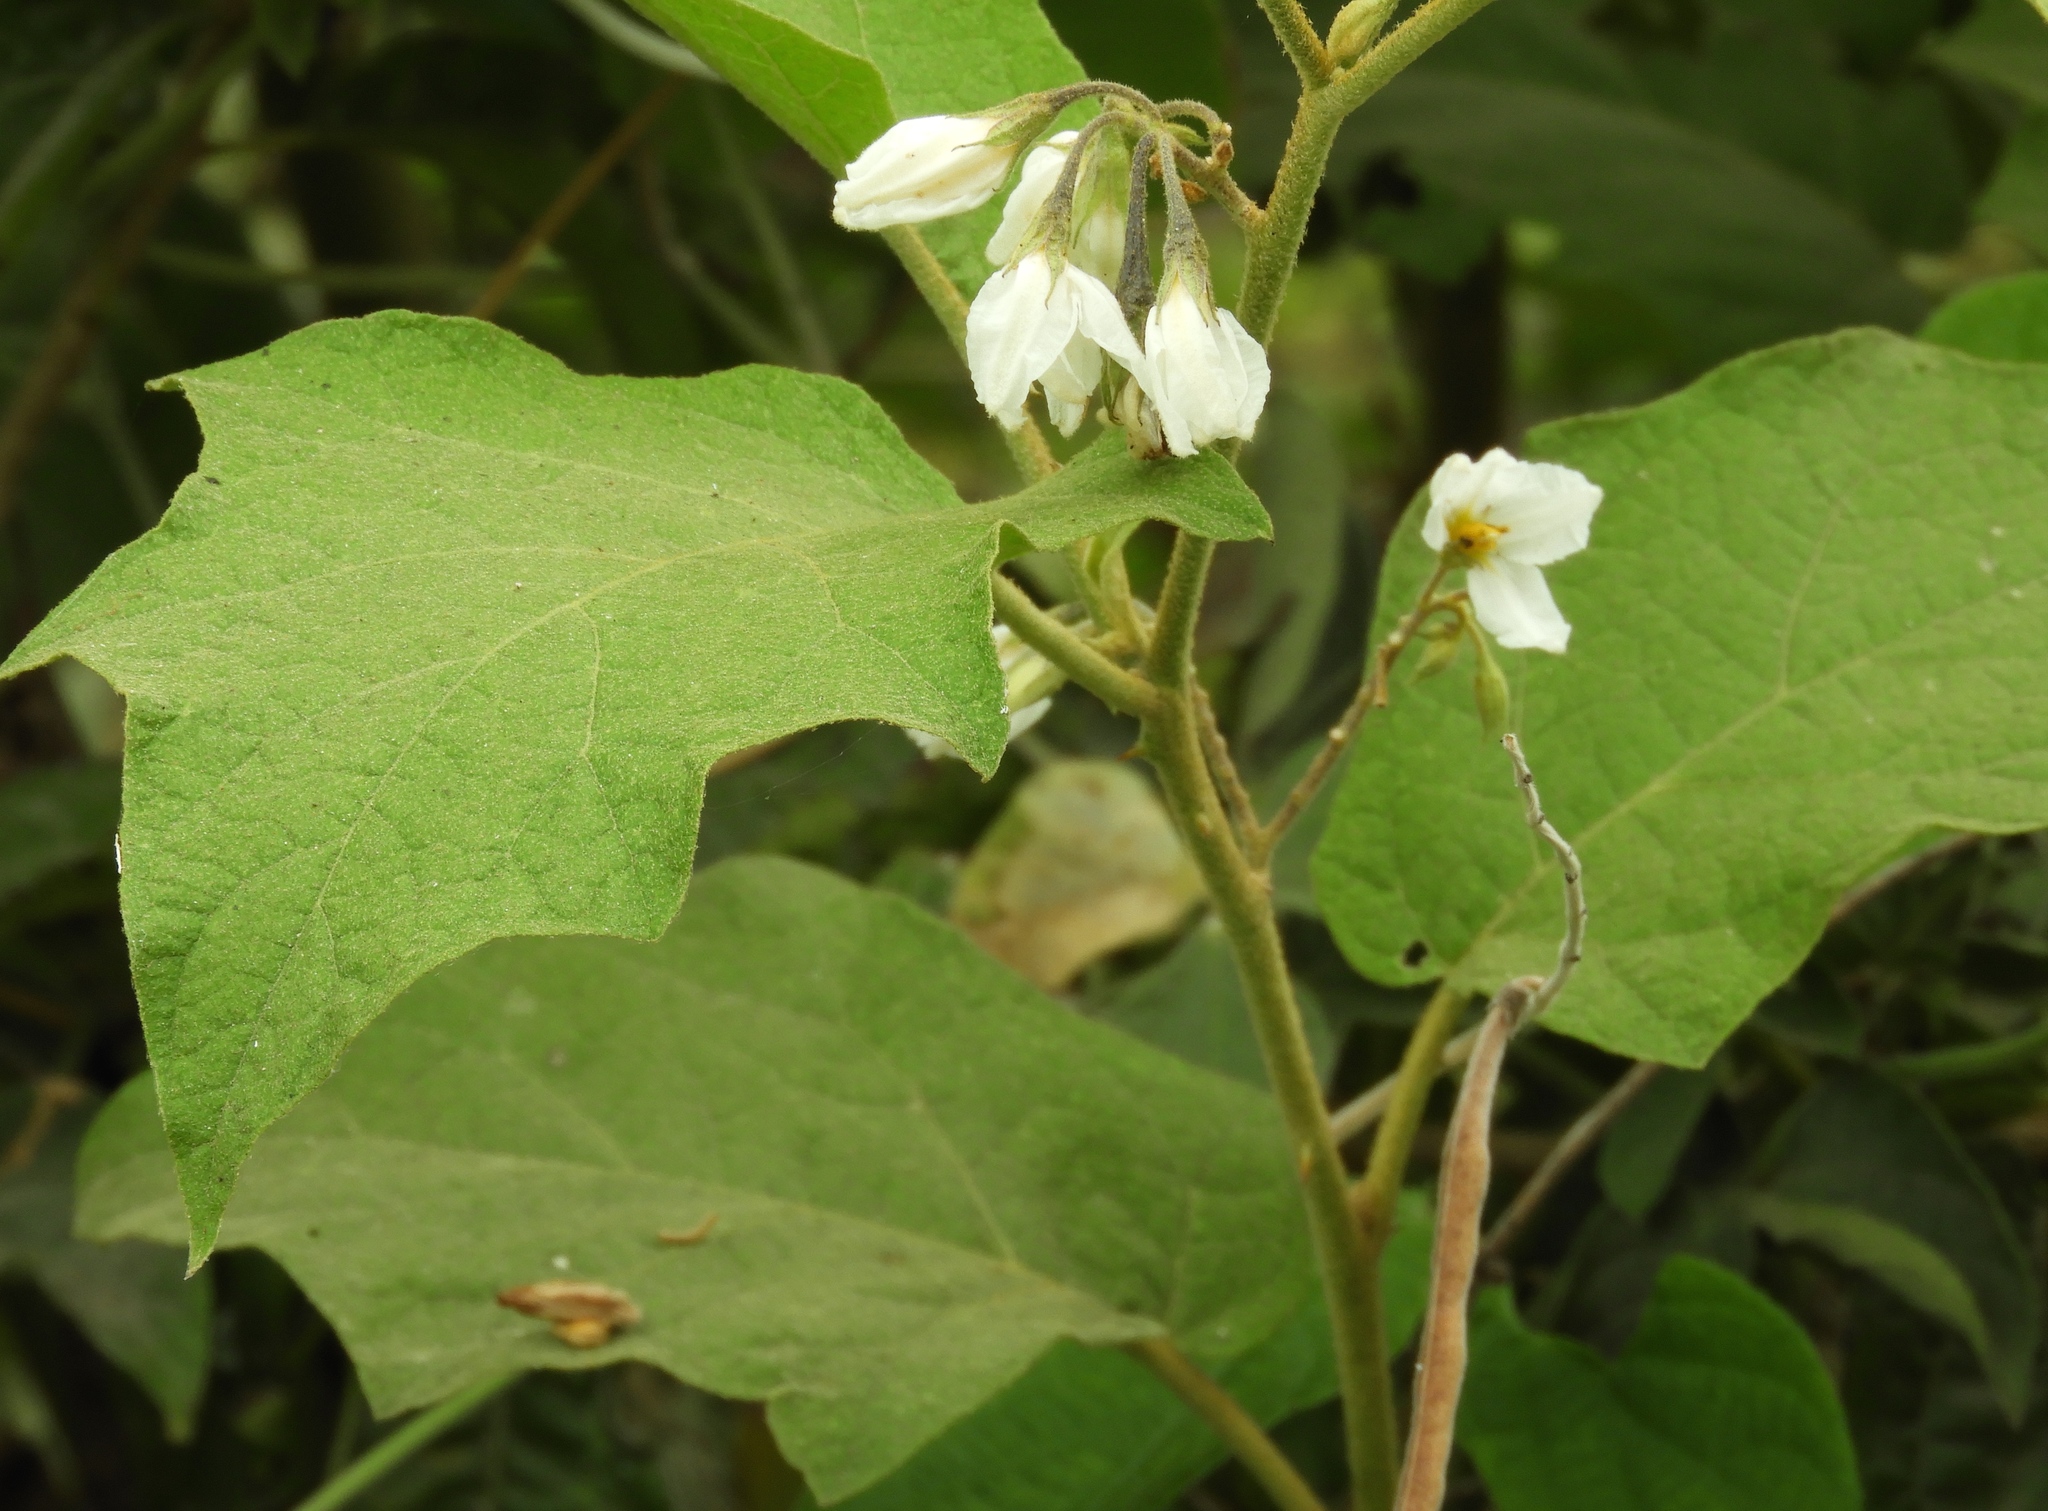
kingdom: Plantae
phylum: Tracheophyta
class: Magnoliopsida
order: Solanales
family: Solanaceae
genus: Solanum
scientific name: Solanum ferrugineum
